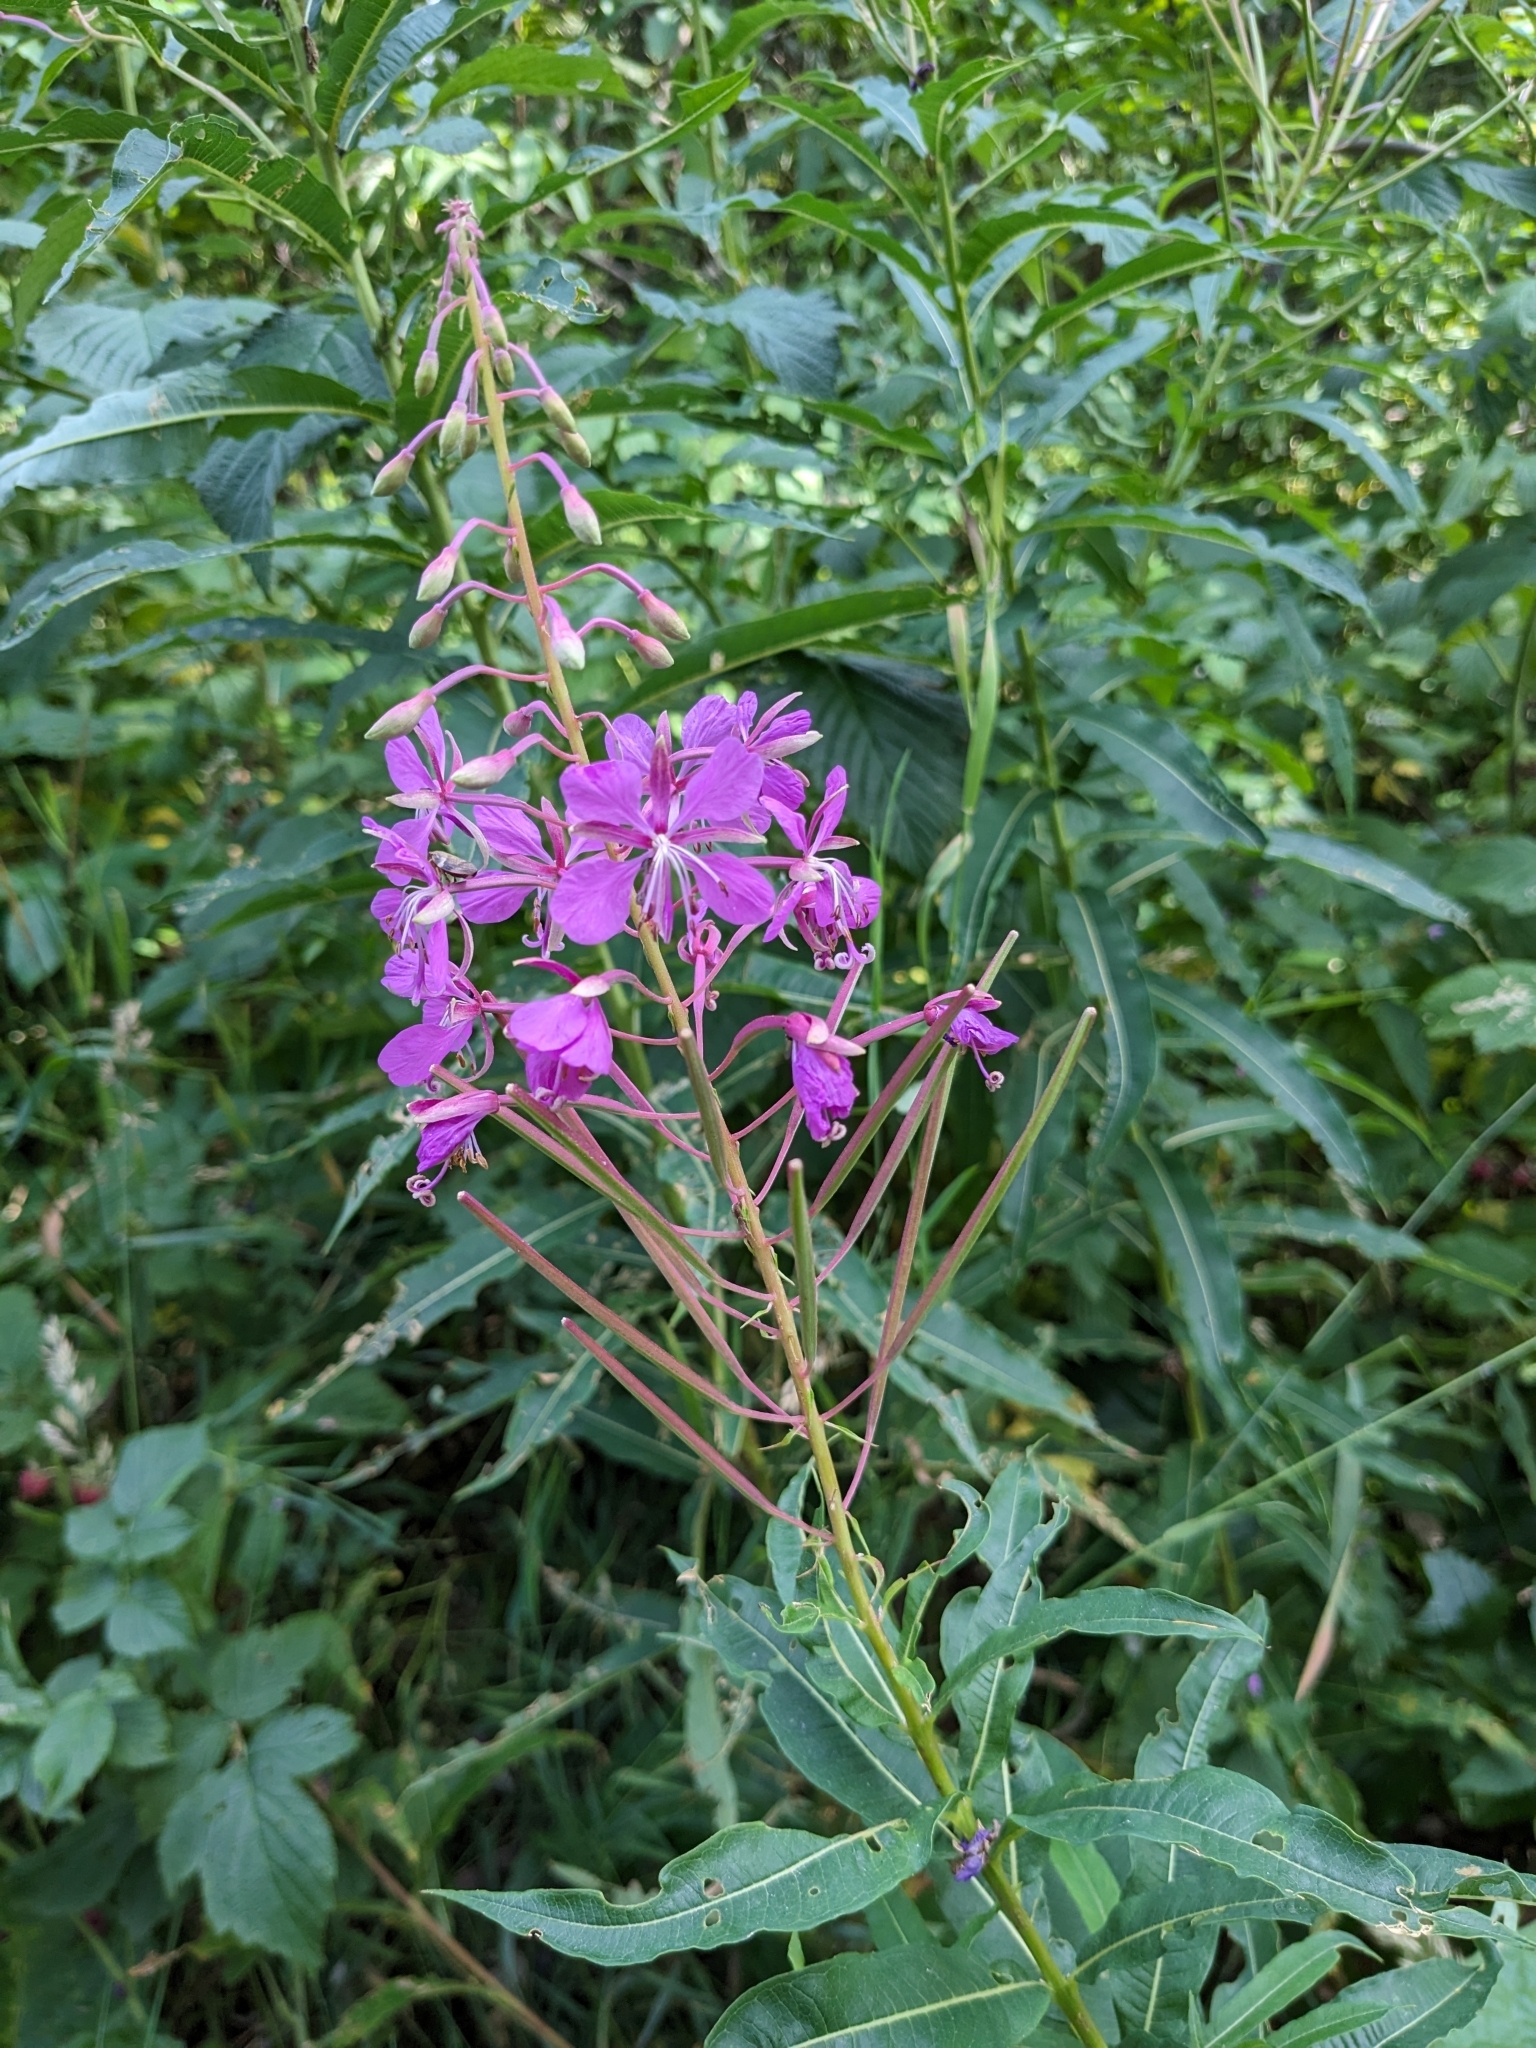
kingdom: Plantae
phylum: Tracheophyta
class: Magnoliopsida
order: Myrtales
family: Onagraceae
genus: Chamaenerion
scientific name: Chamaenerion angustifolium
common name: Fireweed
